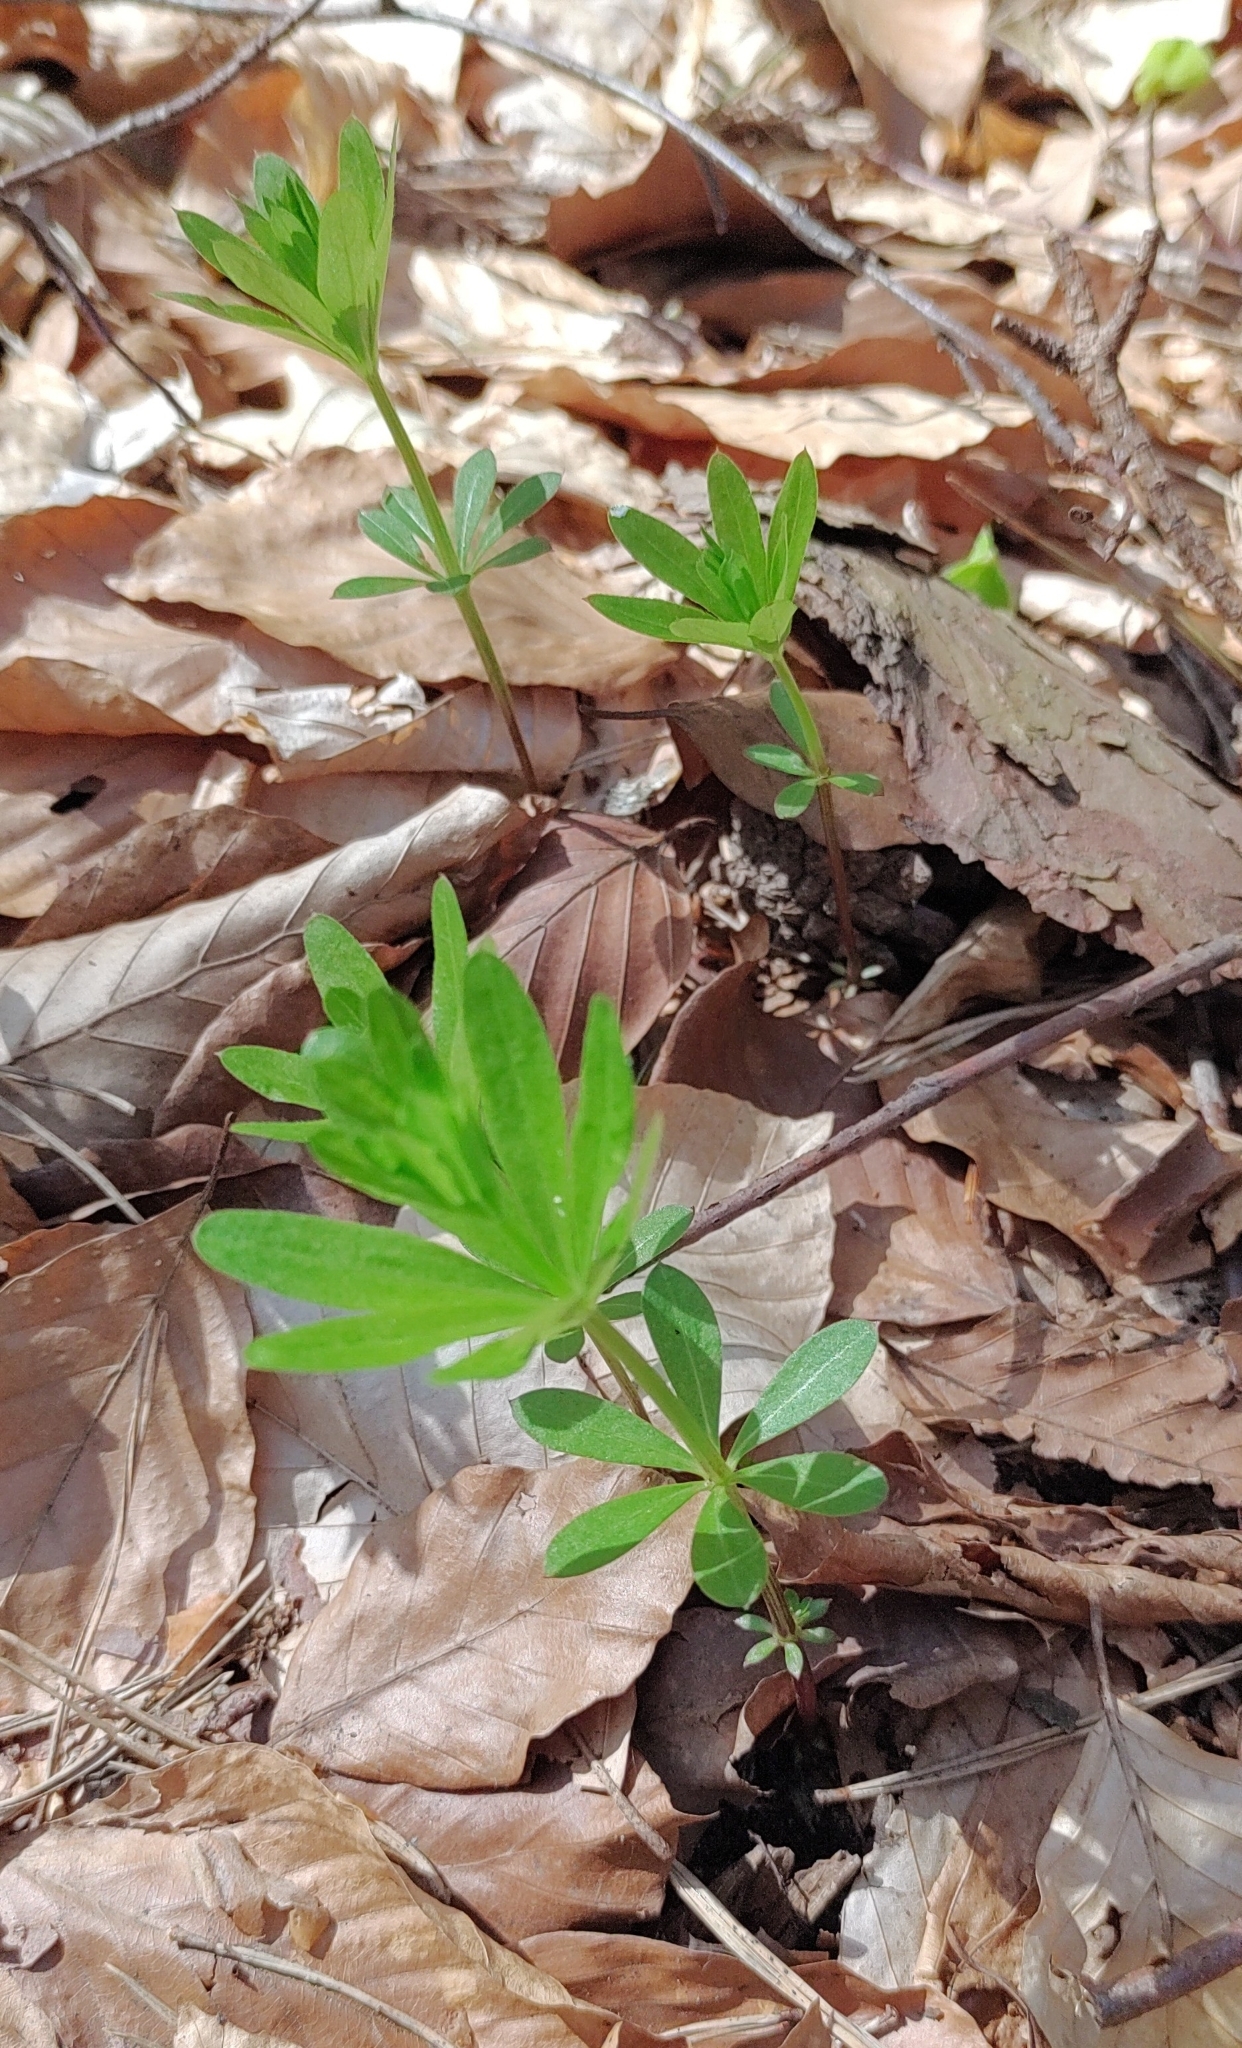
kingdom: Plantae
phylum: Tracheophyta
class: Magnoliopsida
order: Gentianales
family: Rubiaceae
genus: Galium
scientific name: Galium odoratum
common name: Sweet woodruff
